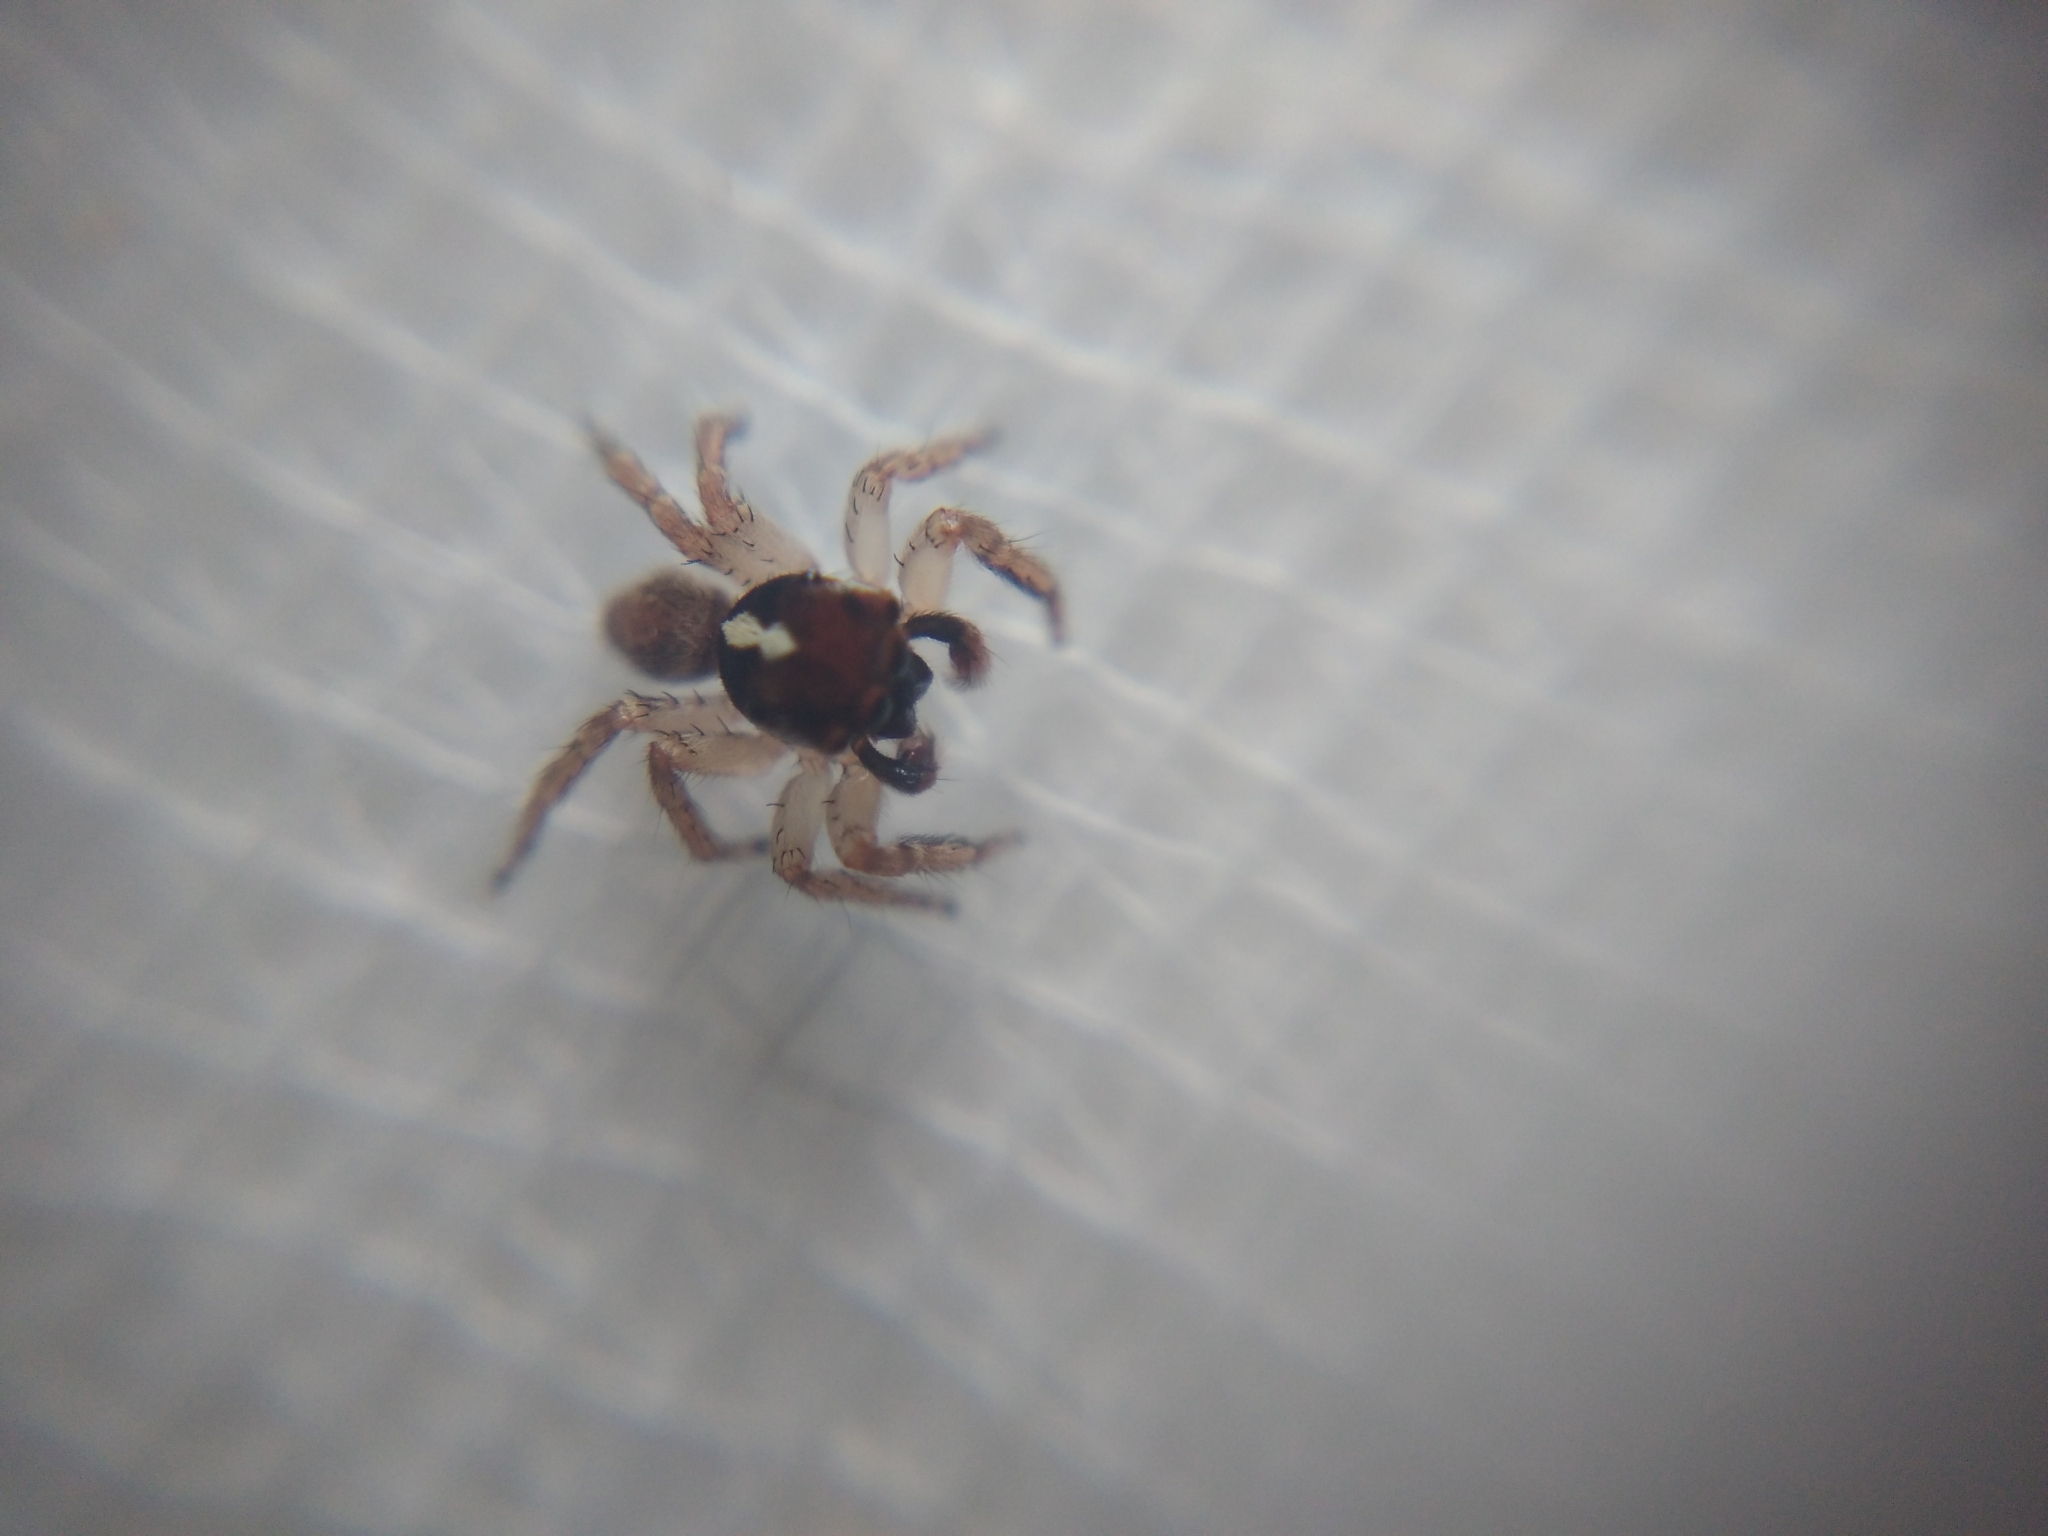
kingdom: Animalia
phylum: Arthropoda
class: Arachnida
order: Araneae
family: Salticidae
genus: Thyenula
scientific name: Thyenula munda
